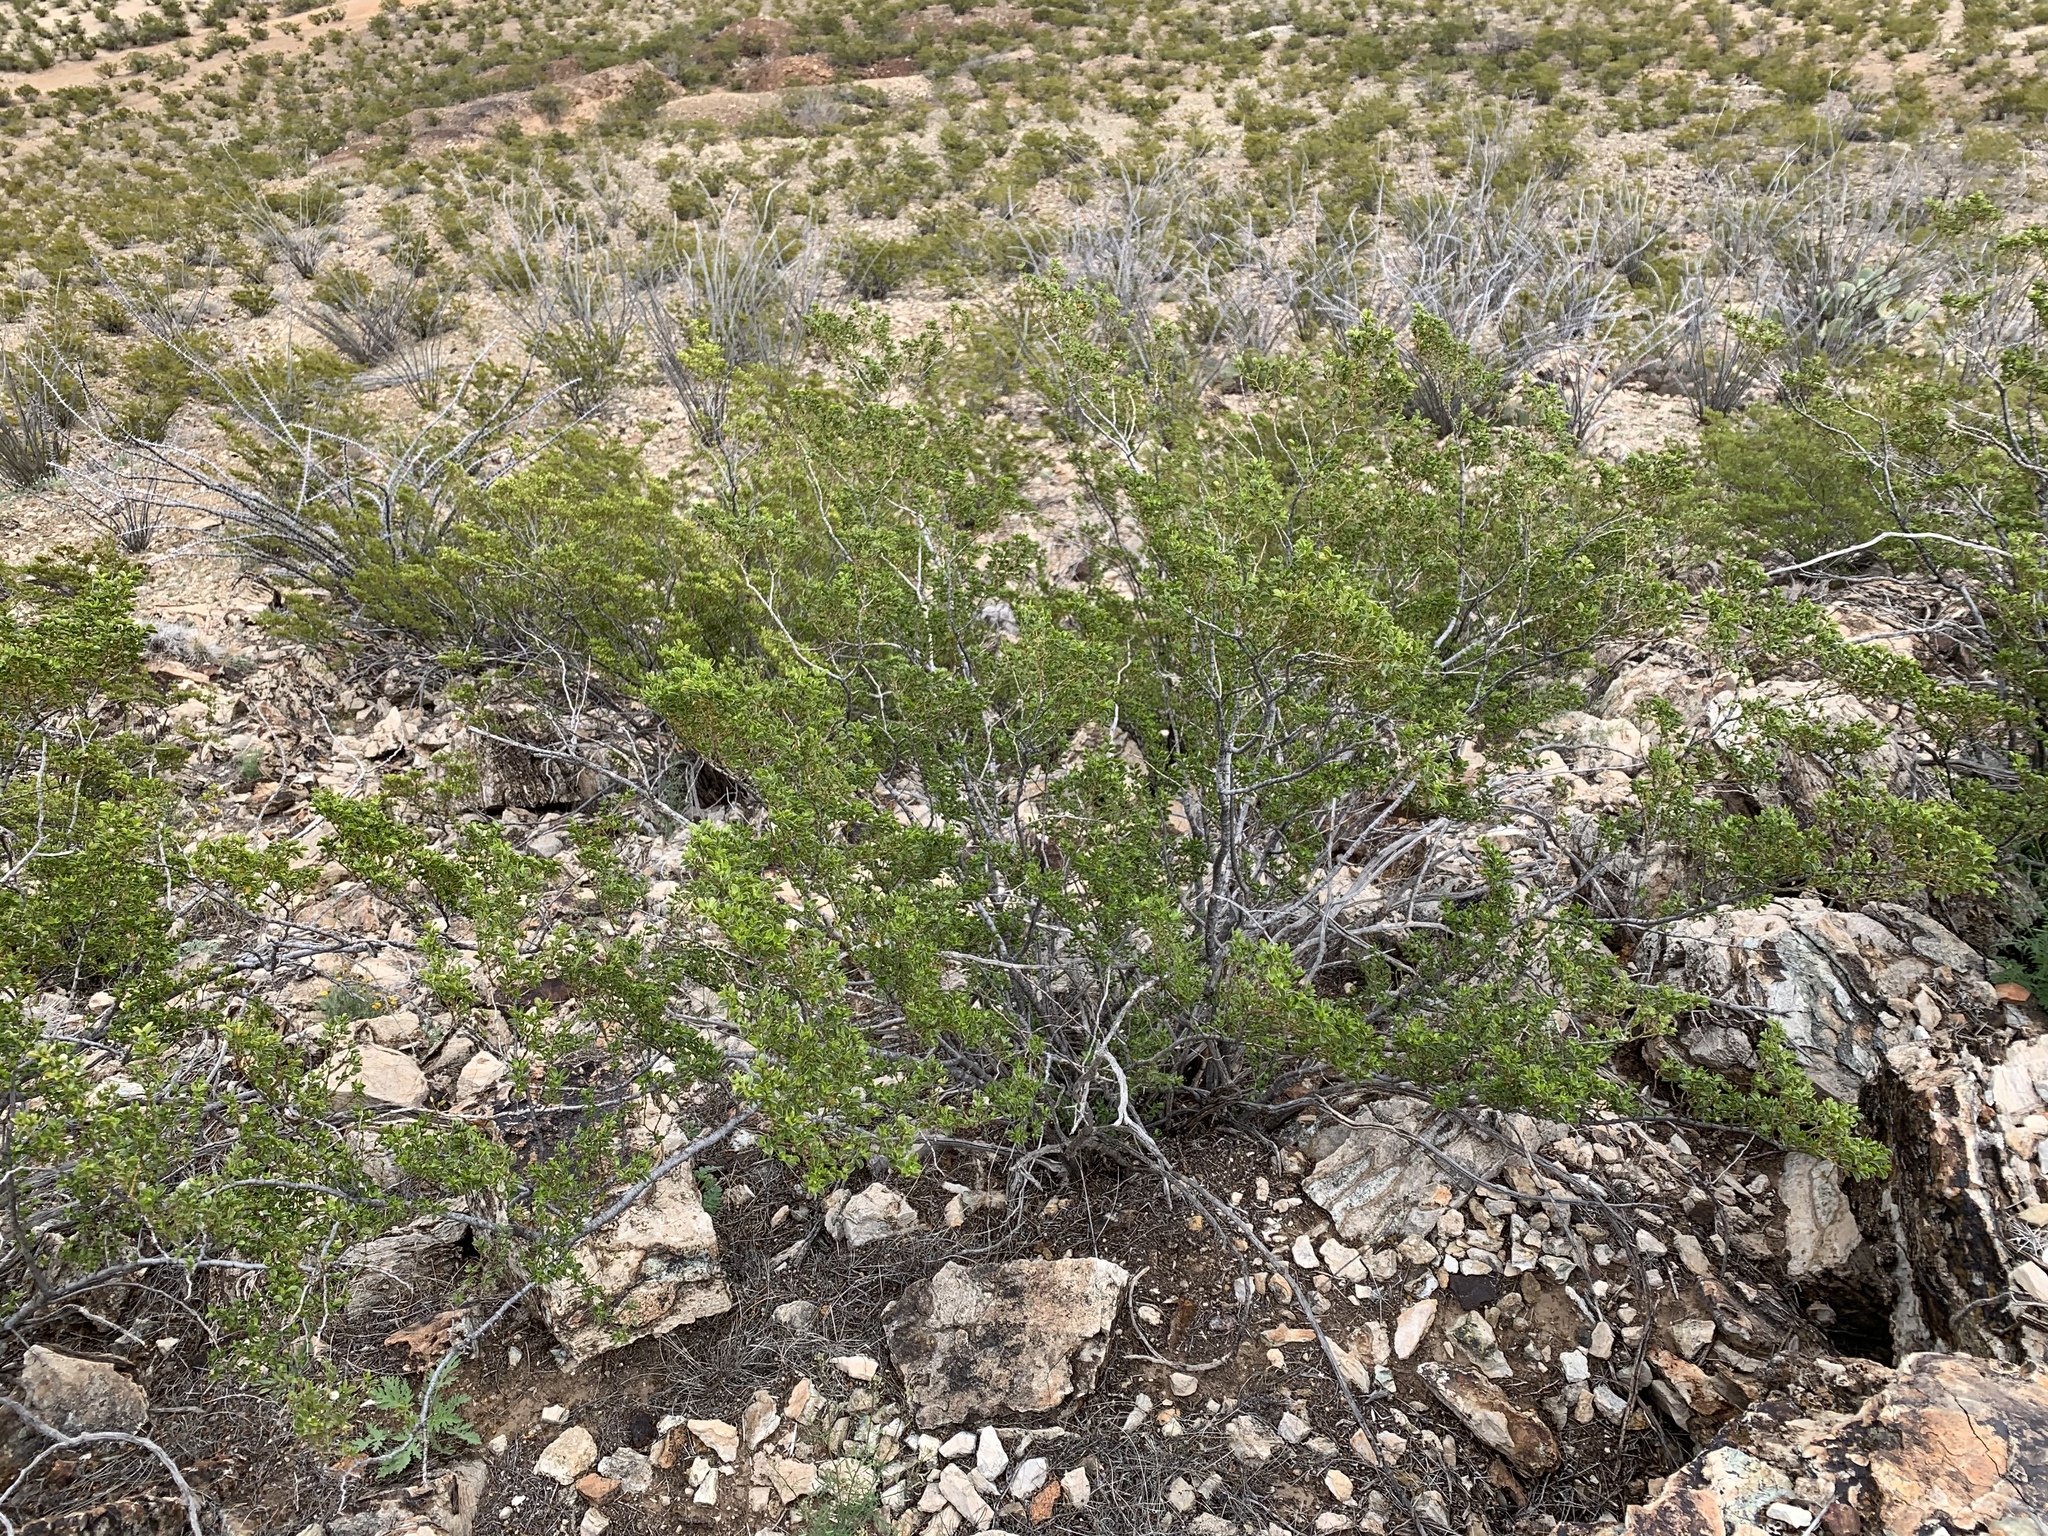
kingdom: Plantae
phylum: Tracheophyta
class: Magnoliopsida
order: Zygophyllales
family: Zygophyllaceae
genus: Larrea
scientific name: Larrea tridentata
